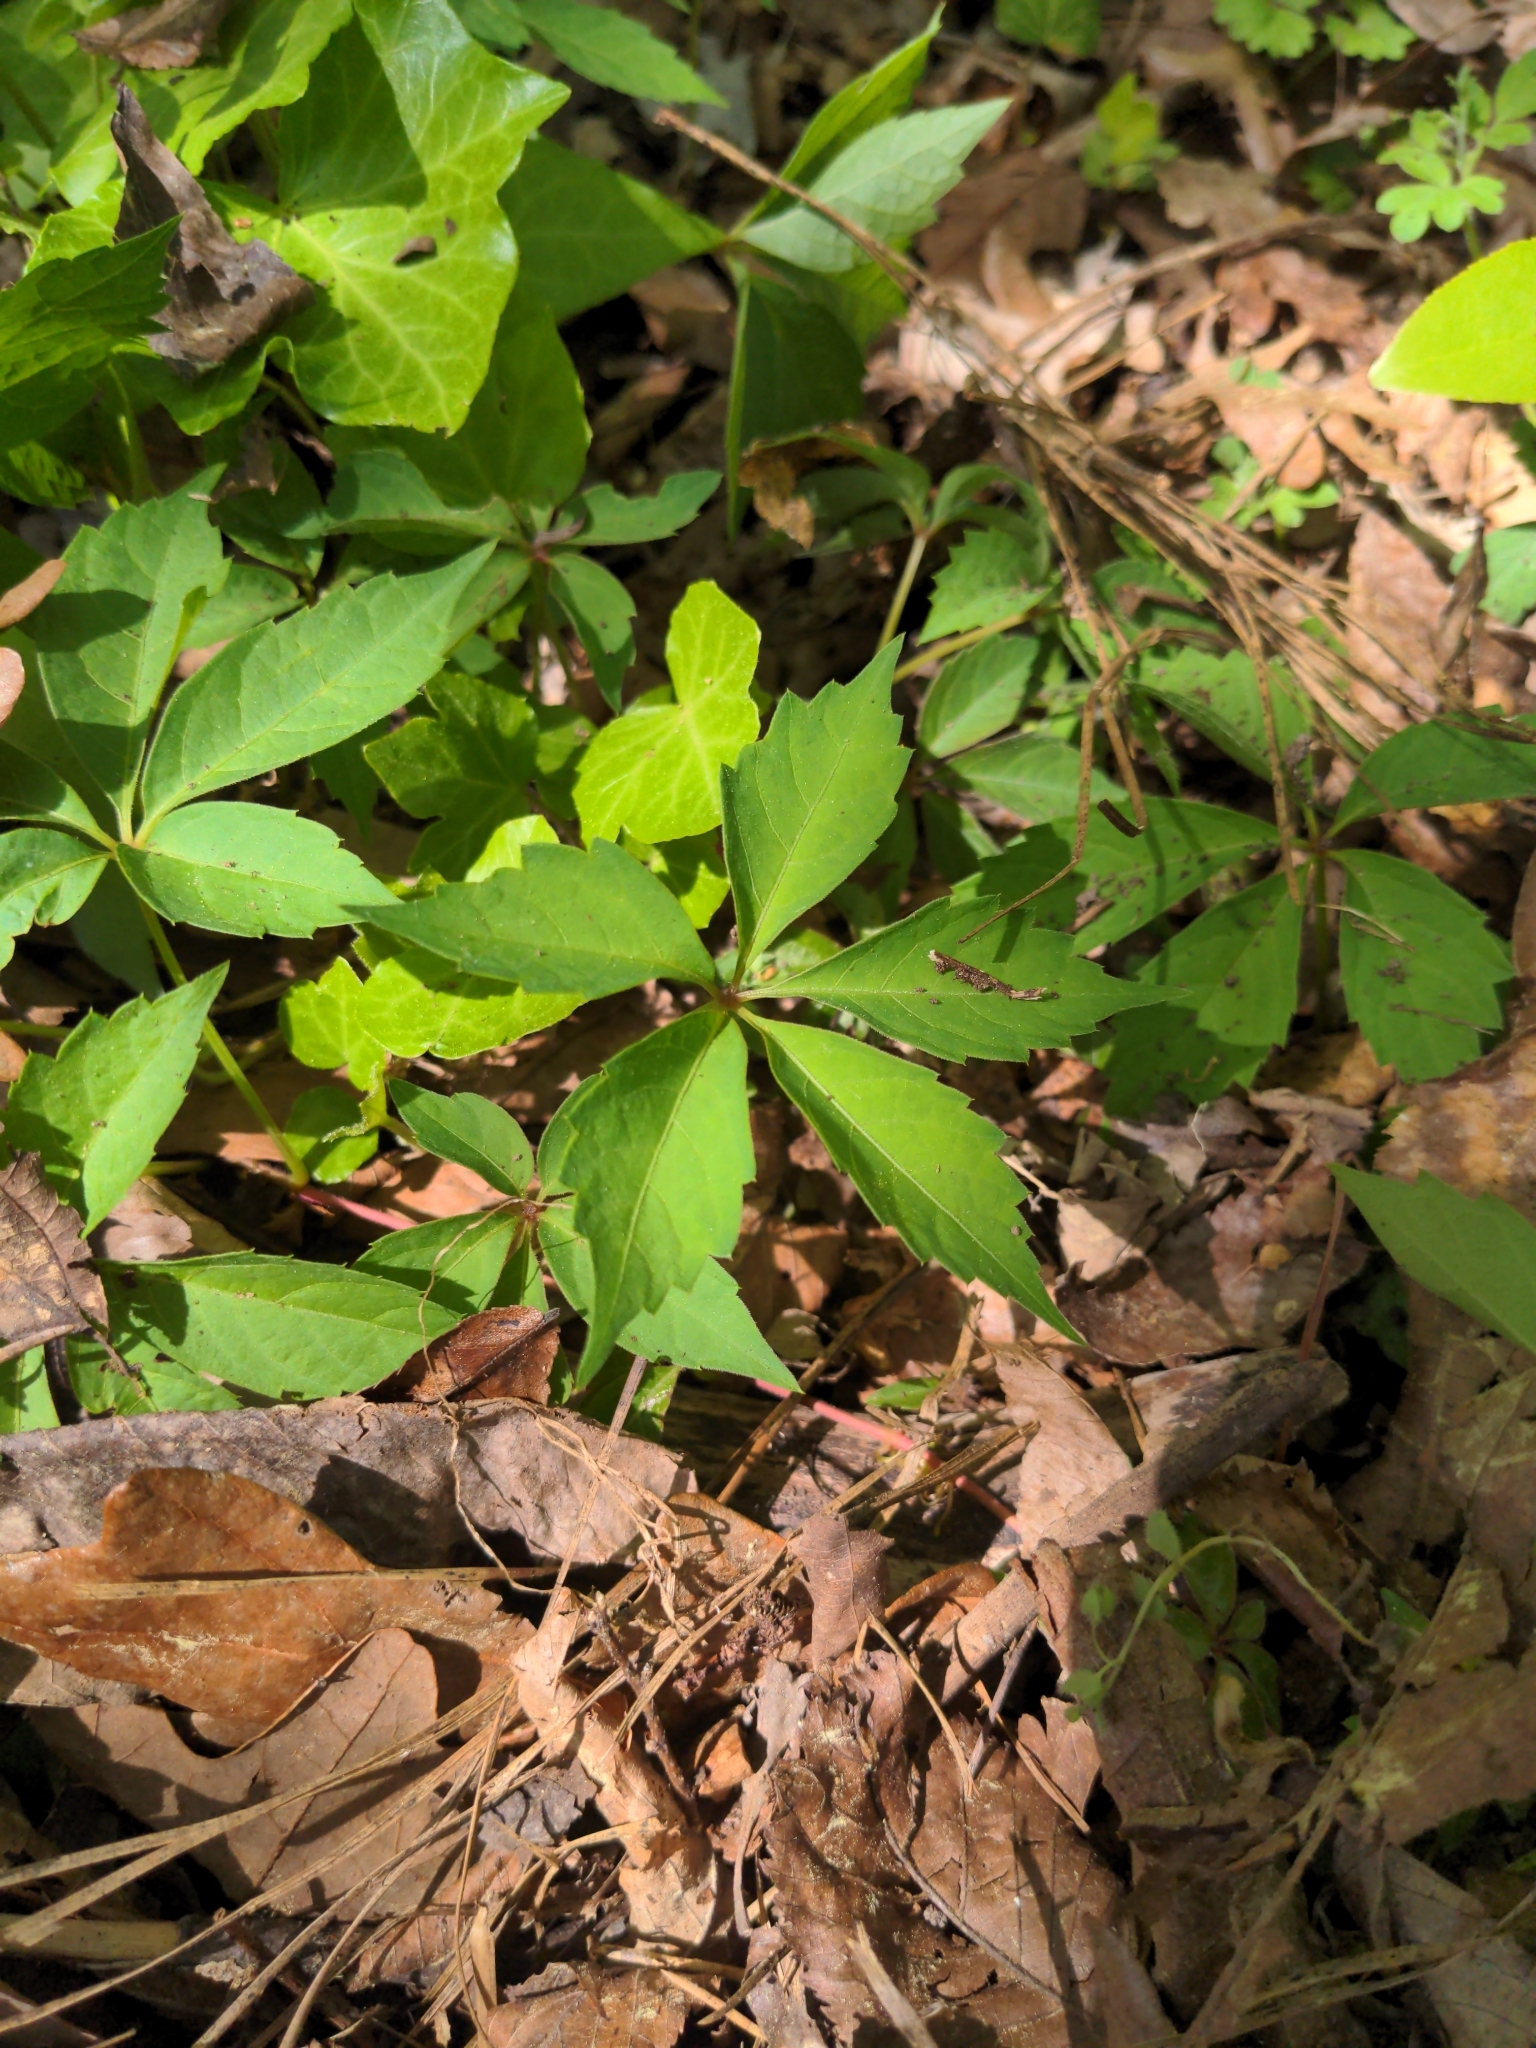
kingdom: Plantae
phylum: Tracheophyta
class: Magnoliopsida
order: Vitales
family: Vitaceae
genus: Parthenocissus
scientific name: Parthenocissus quinquefolia
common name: Virginia-creeper
